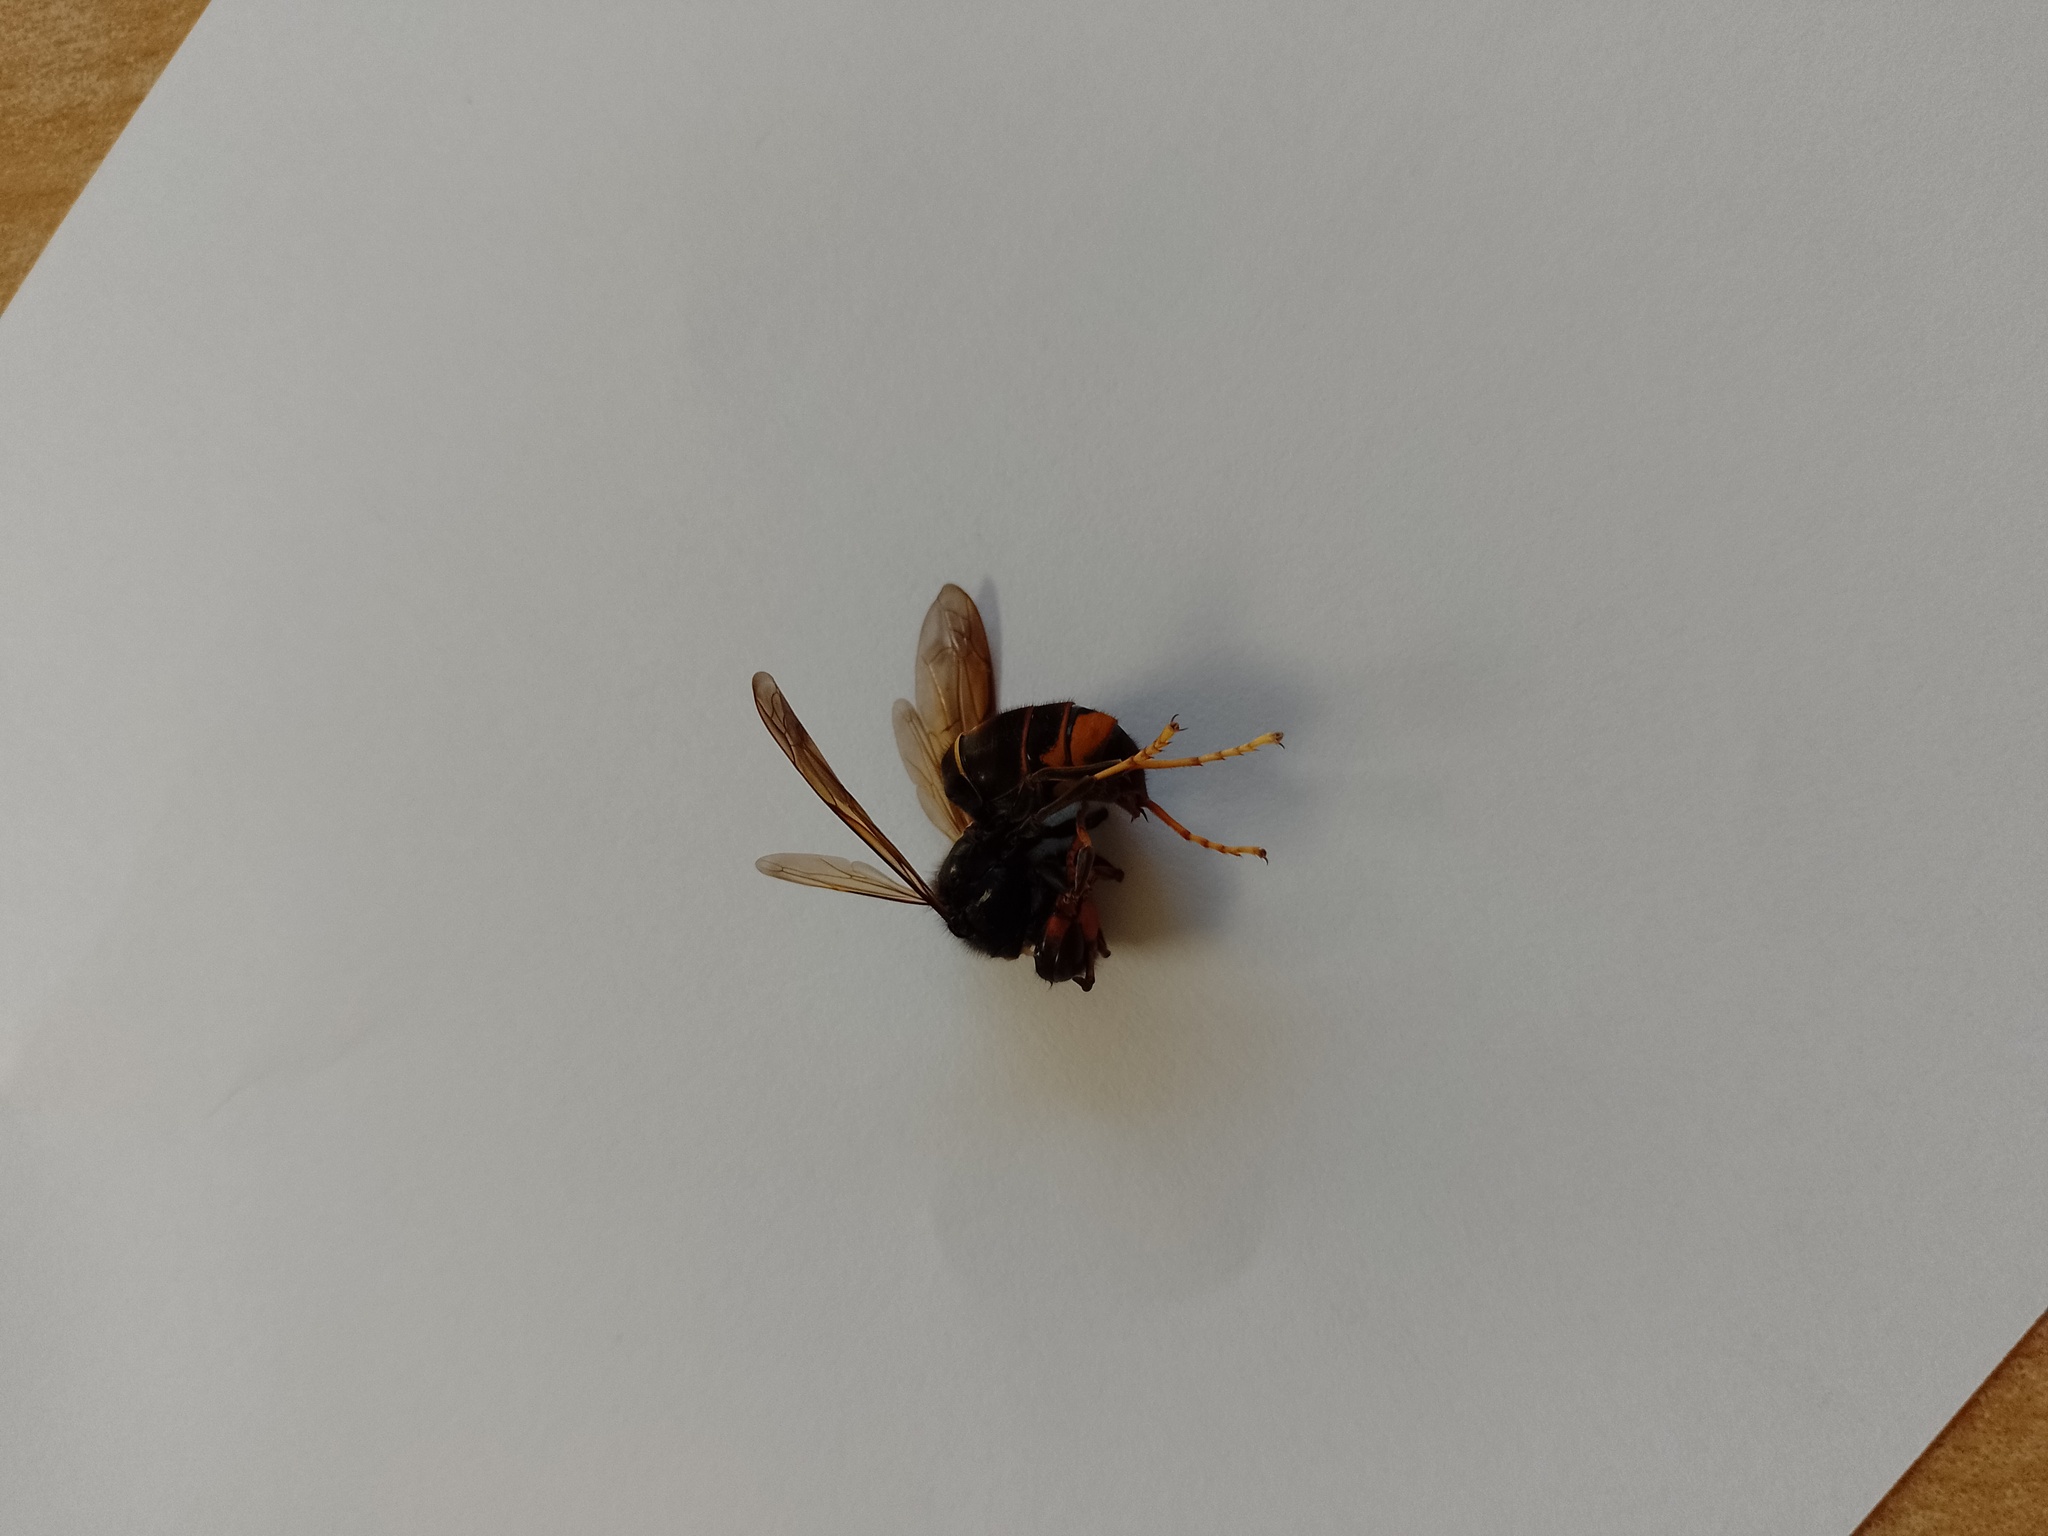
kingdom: Animalia
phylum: Arthropoda
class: Insecta
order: Hymenoptera
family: Vespidae
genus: Vespa
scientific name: Vespa velutina
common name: Asian hornet
